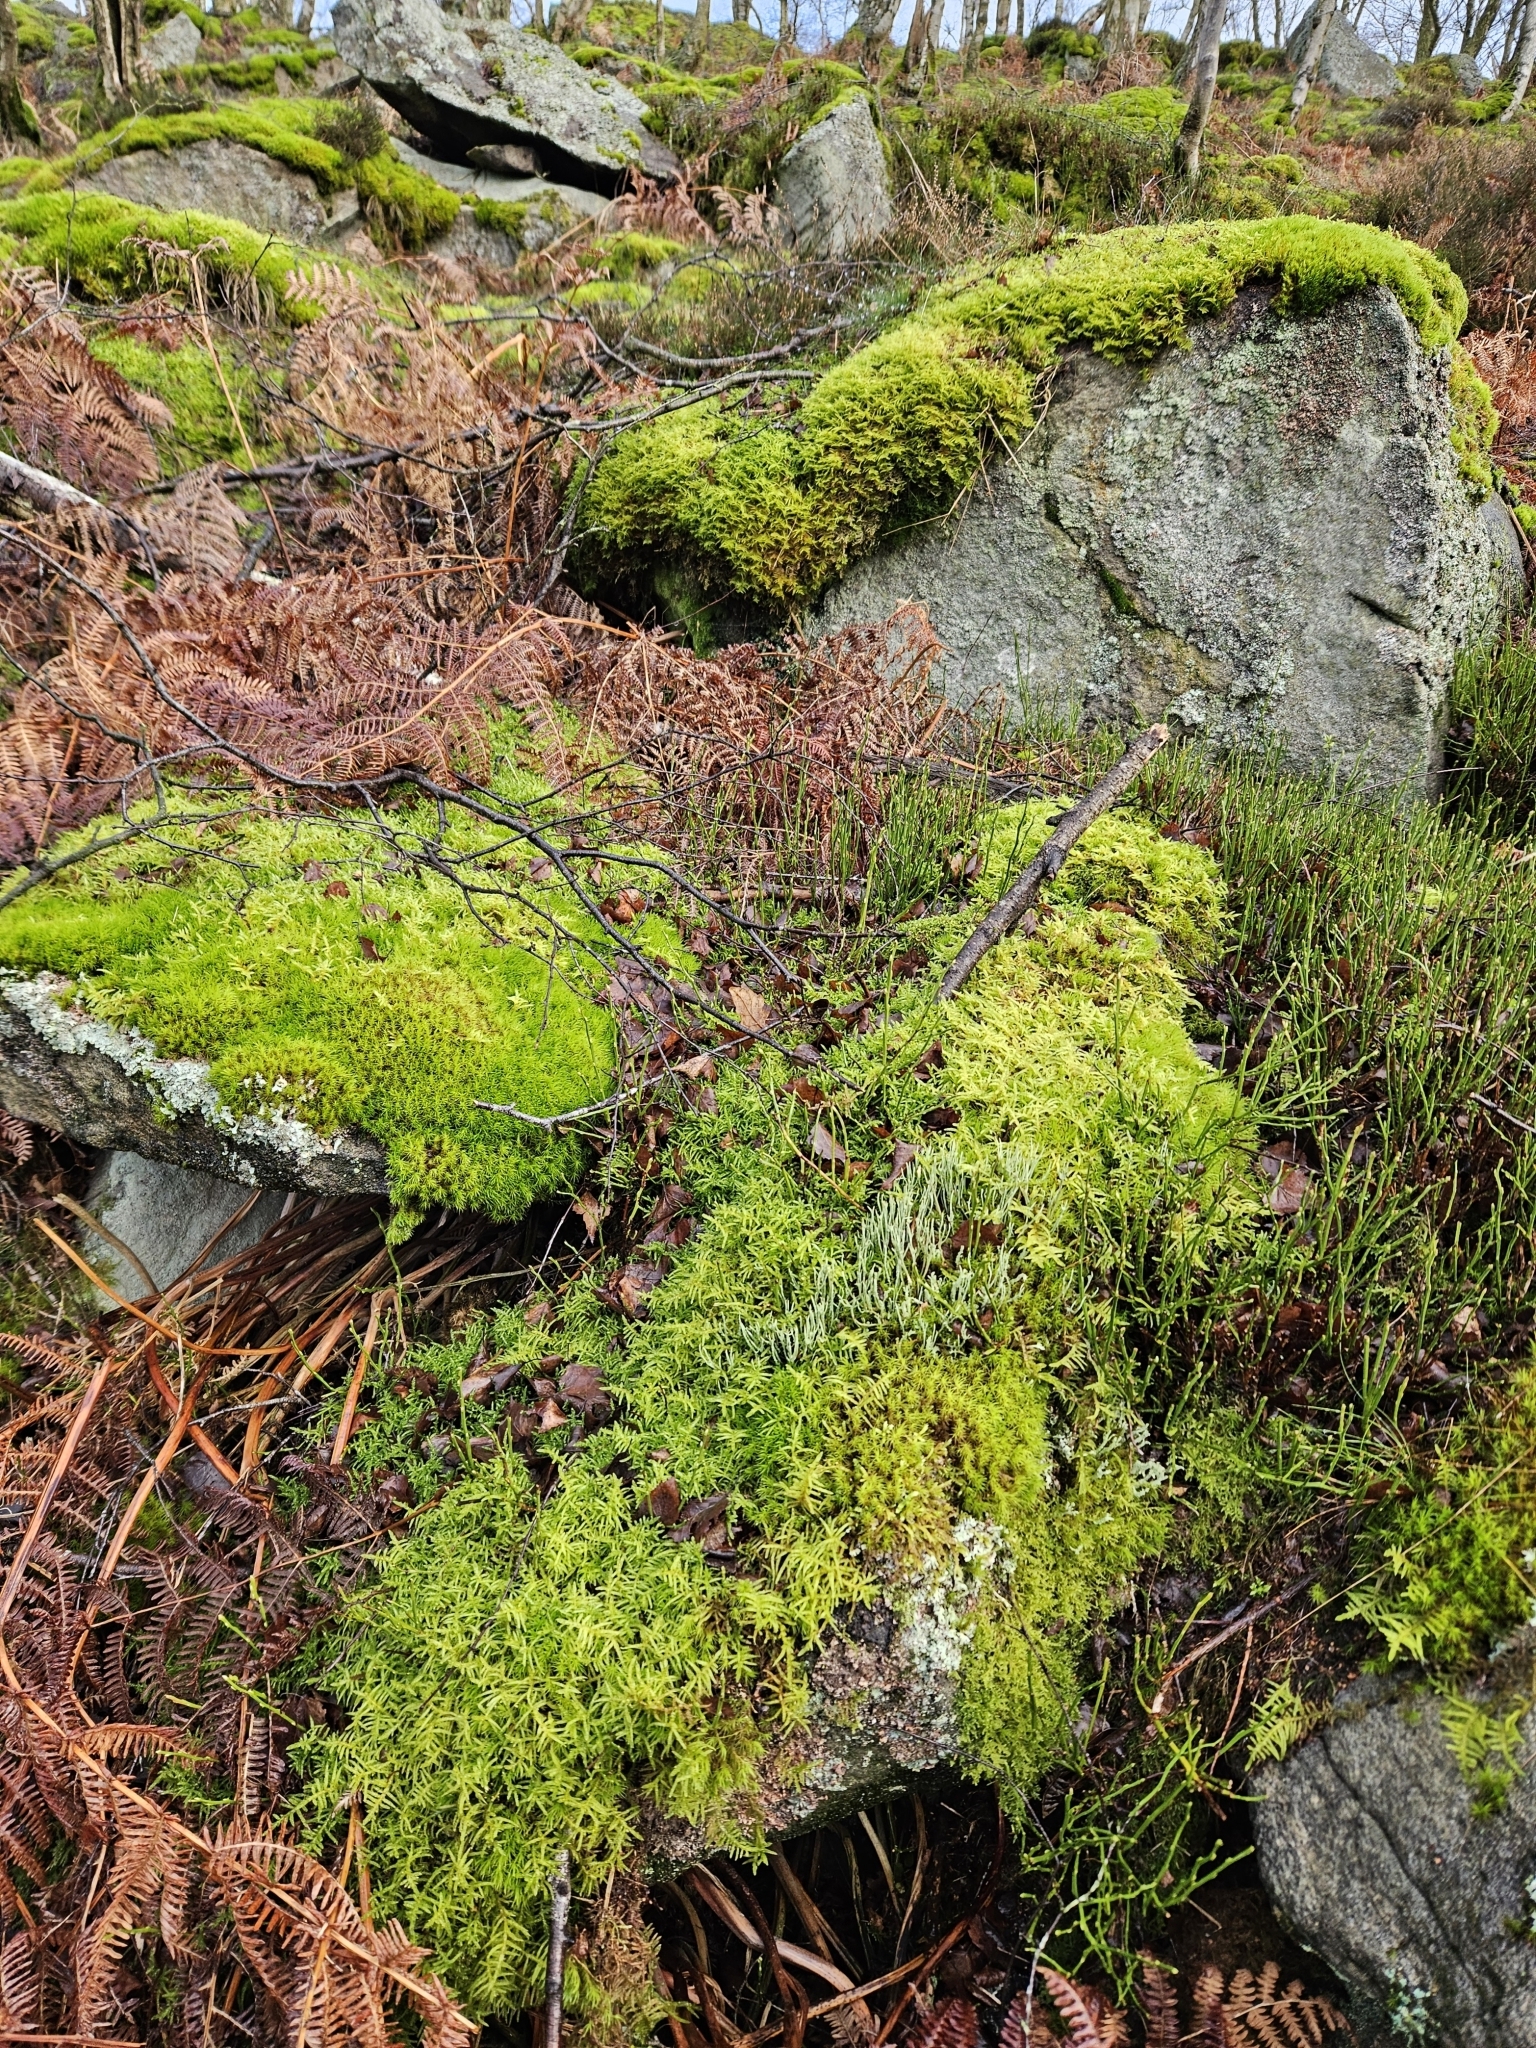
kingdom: Plantae
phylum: Bryophyta
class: Bryopsida
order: Hypnales
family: Brachytheciaceae
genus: Pseudoscleropodium
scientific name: Pseudoscleropodium purum
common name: Neat feather-moss
